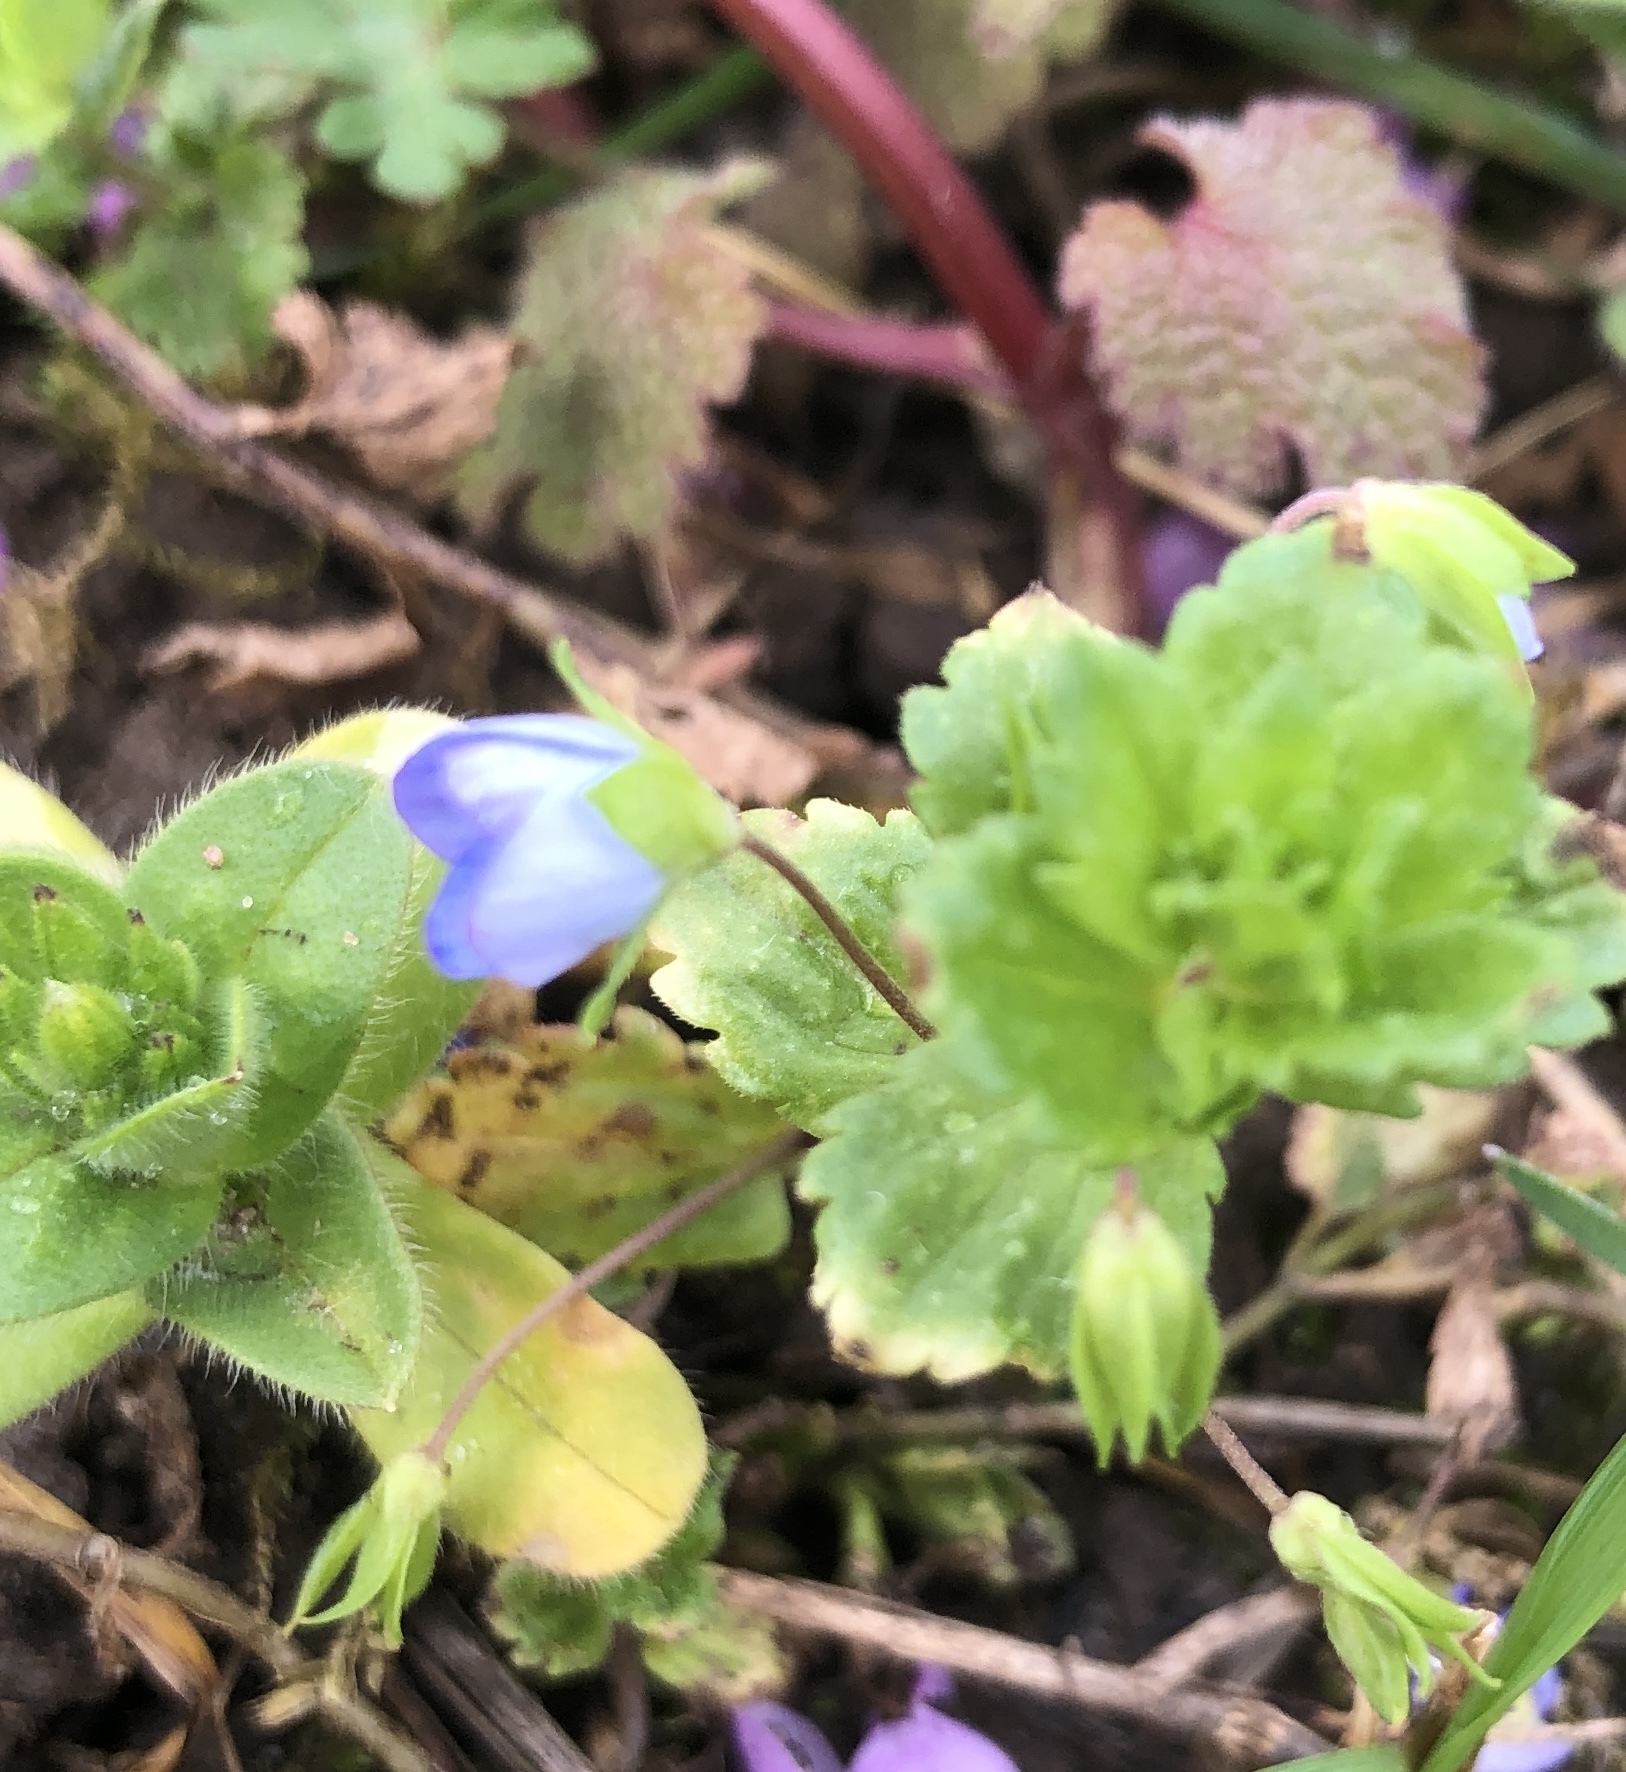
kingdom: Plantae
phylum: Tracheophyta
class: Magnoliopsida
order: Lamiales
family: Plantaginaceae
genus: Veronica
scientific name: Veronica persica
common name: Common field-speedwell
